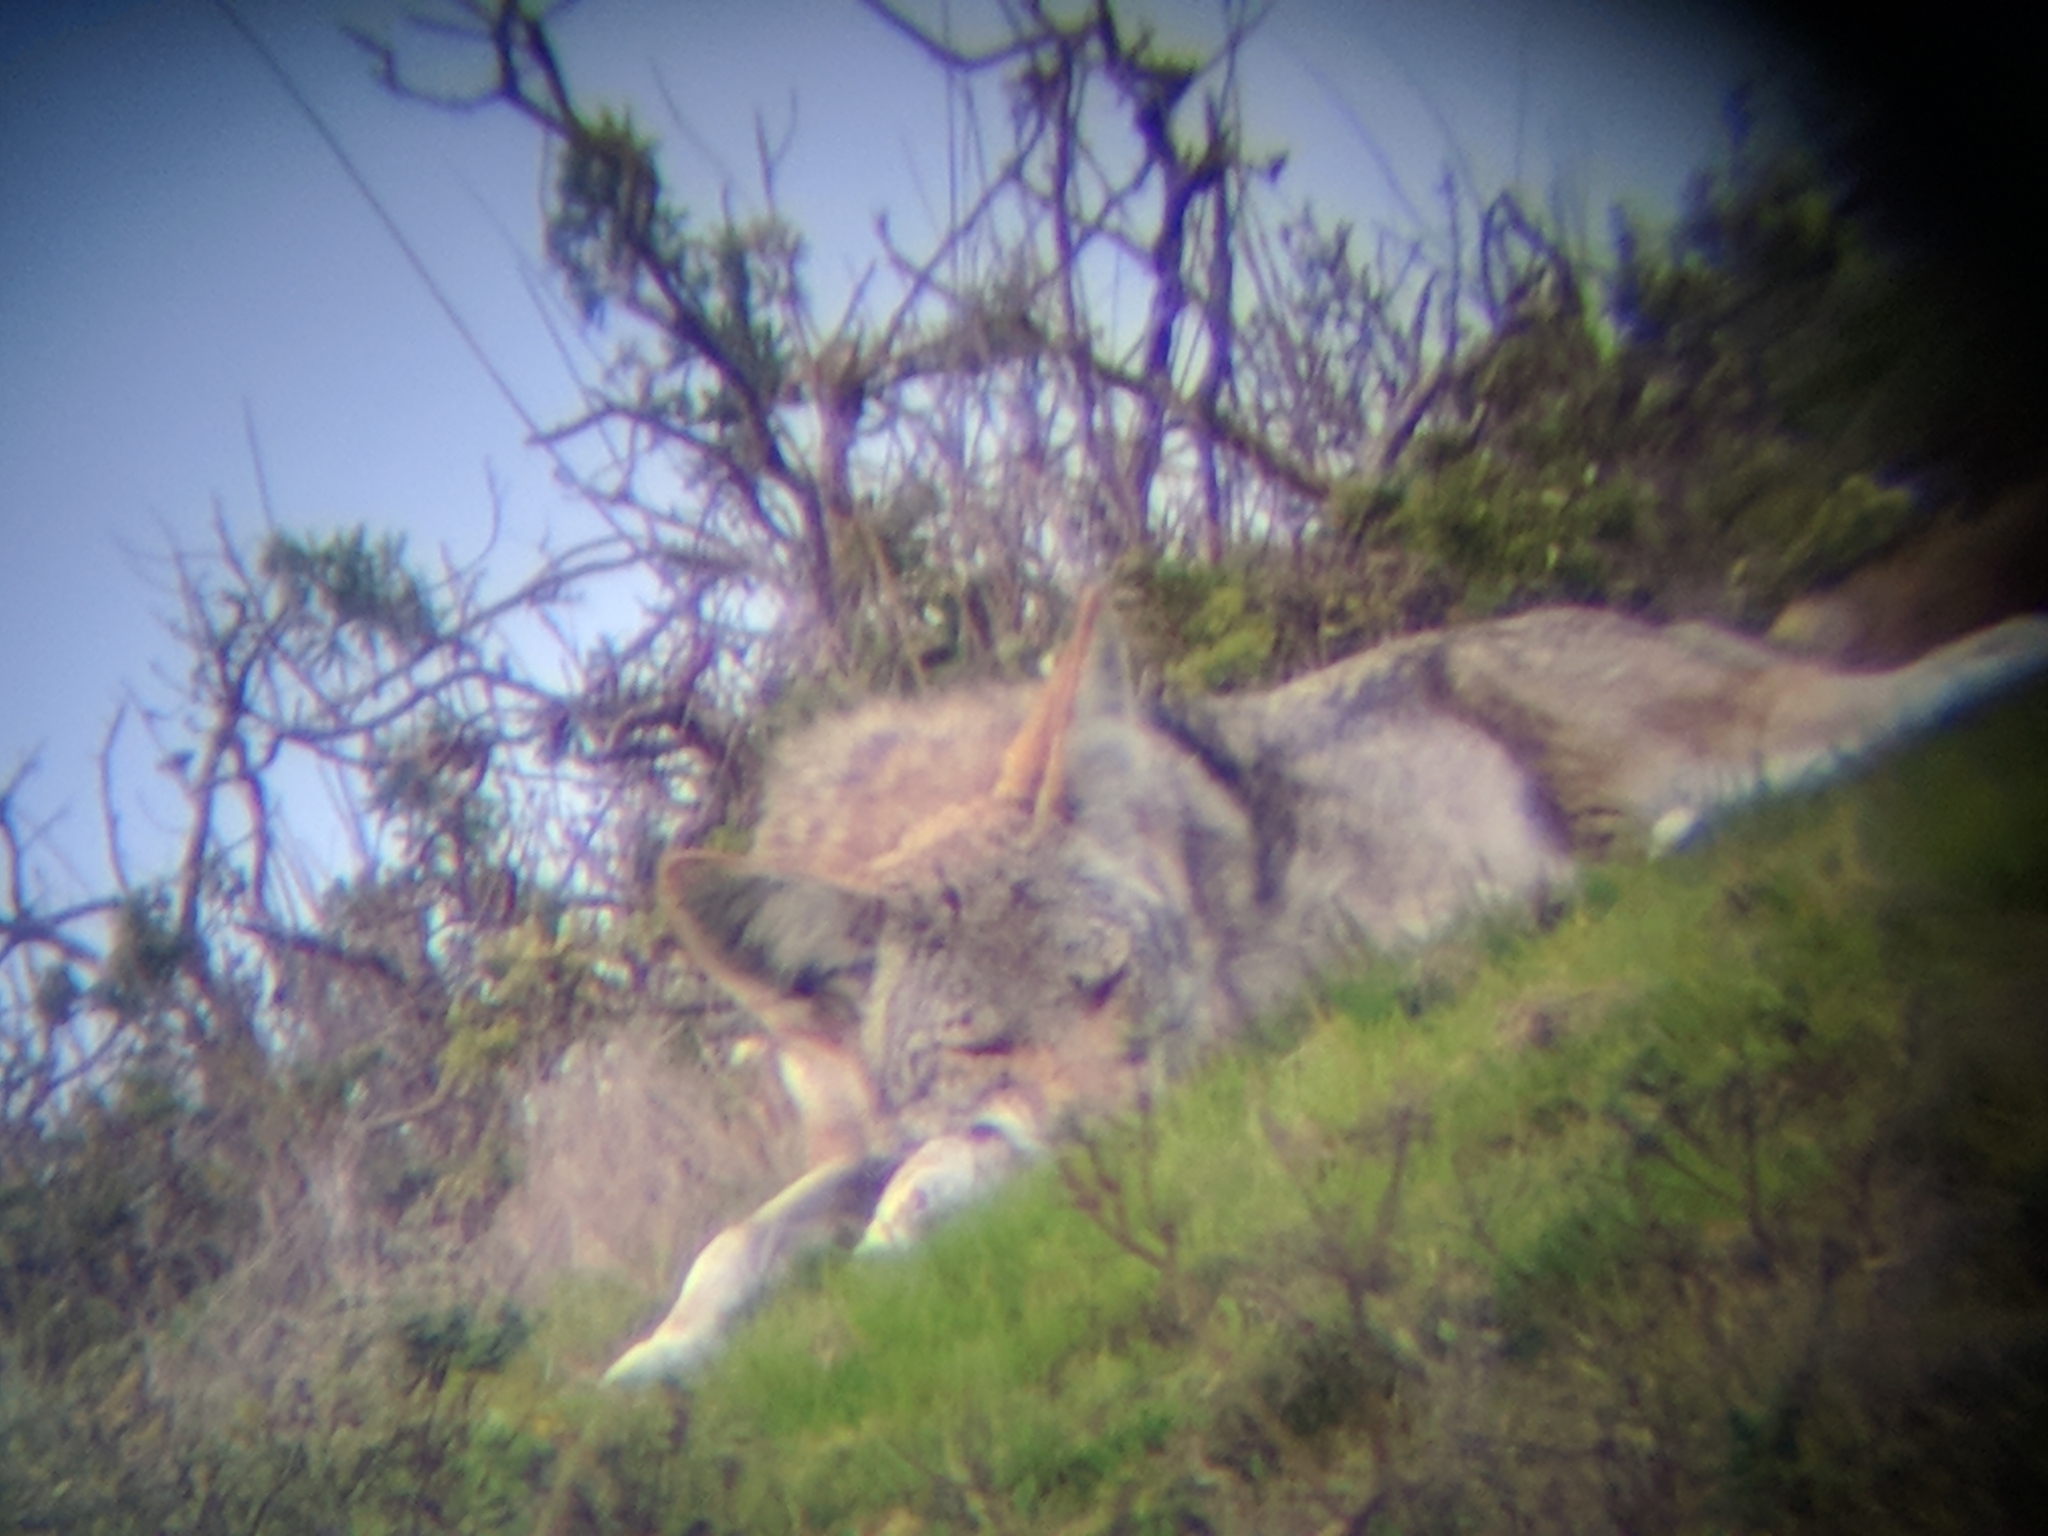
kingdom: Animalia
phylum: Chordata
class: Mammalia
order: Carnivora
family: Canidae
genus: Canis
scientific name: Canis latrans
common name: Coyote
